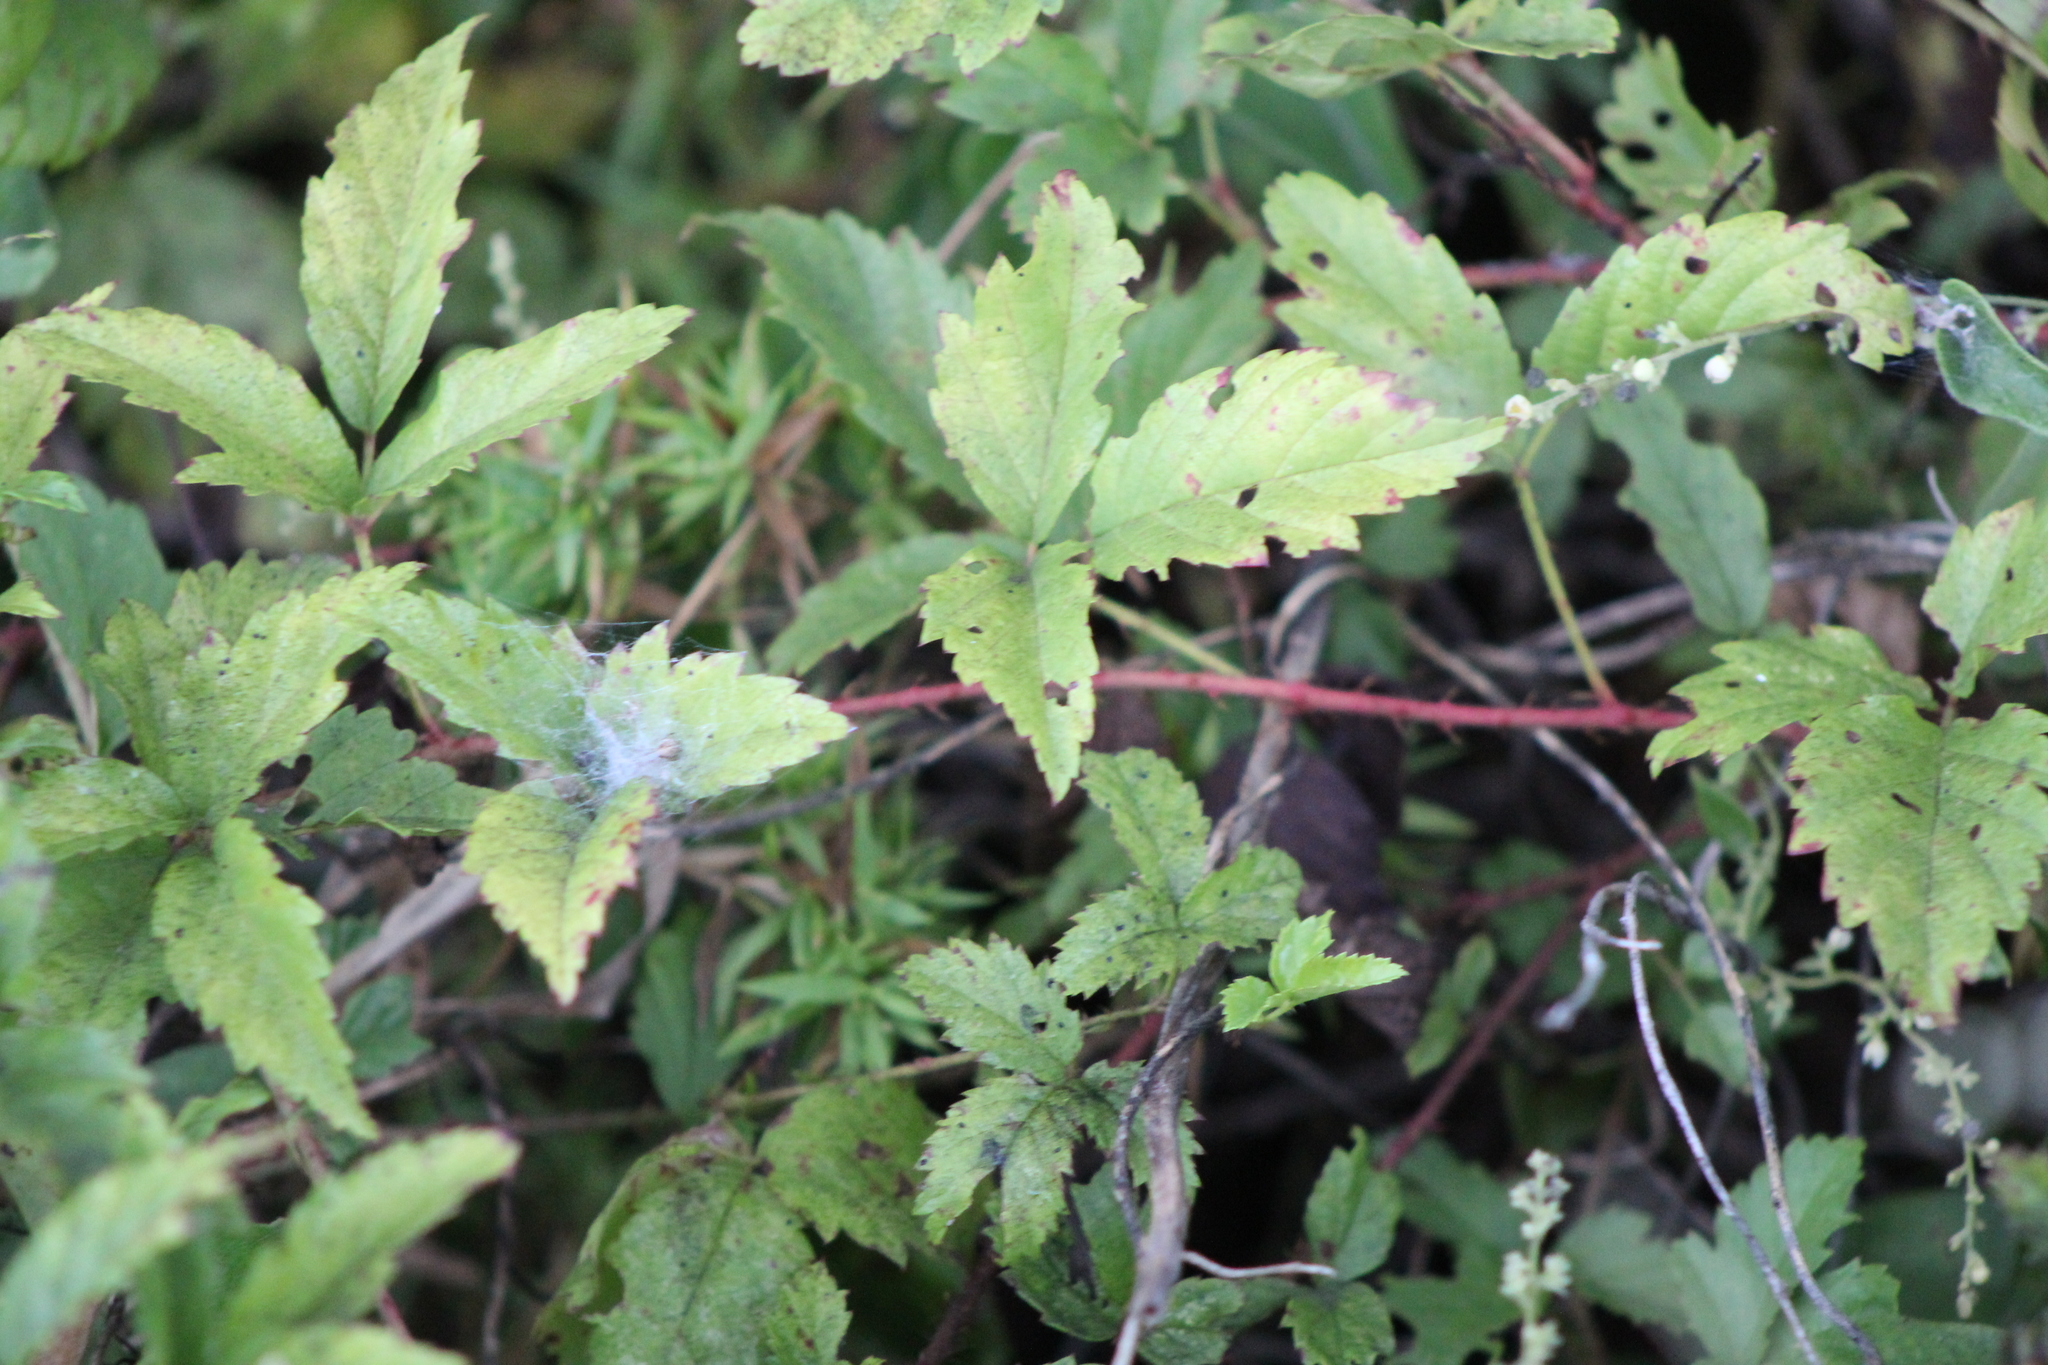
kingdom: Plantae
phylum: Tracheophyta
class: Magnoliopsida
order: Rosales
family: Rosaceae
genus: Rubus
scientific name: Rubus trivialis
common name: Southern dewberry
